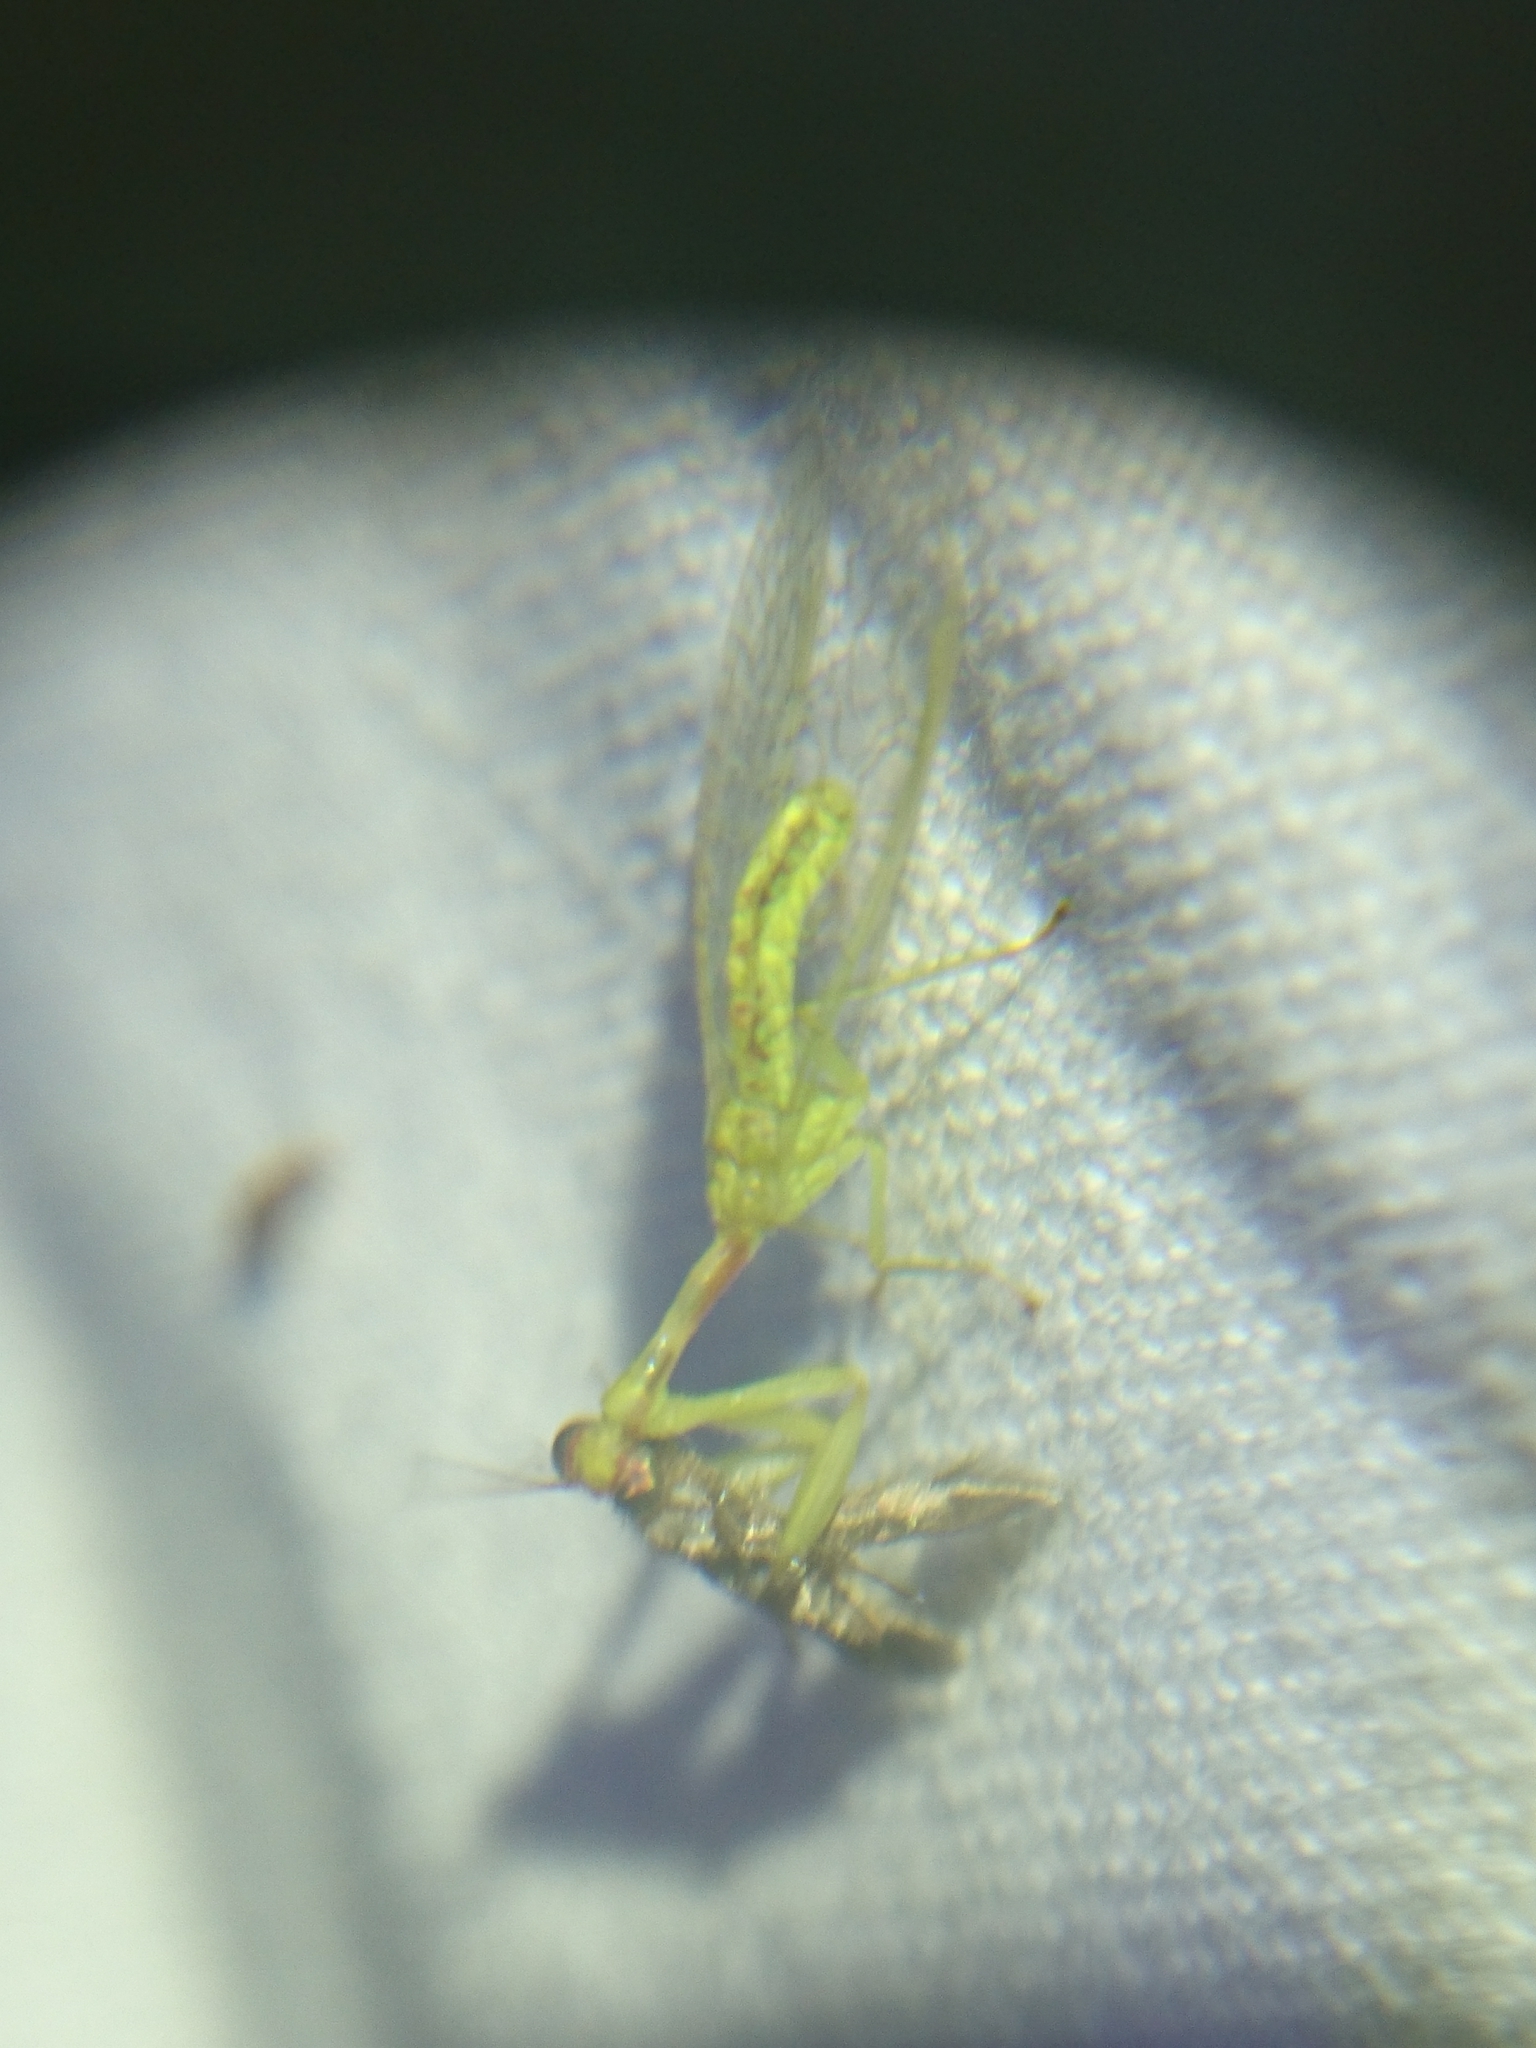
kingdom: Animalia
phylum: Arthropoda
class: Insecta
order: Neuroptera
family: Mantispidae
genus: Zeugomantispa
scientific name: Zeugomantispa minuta
